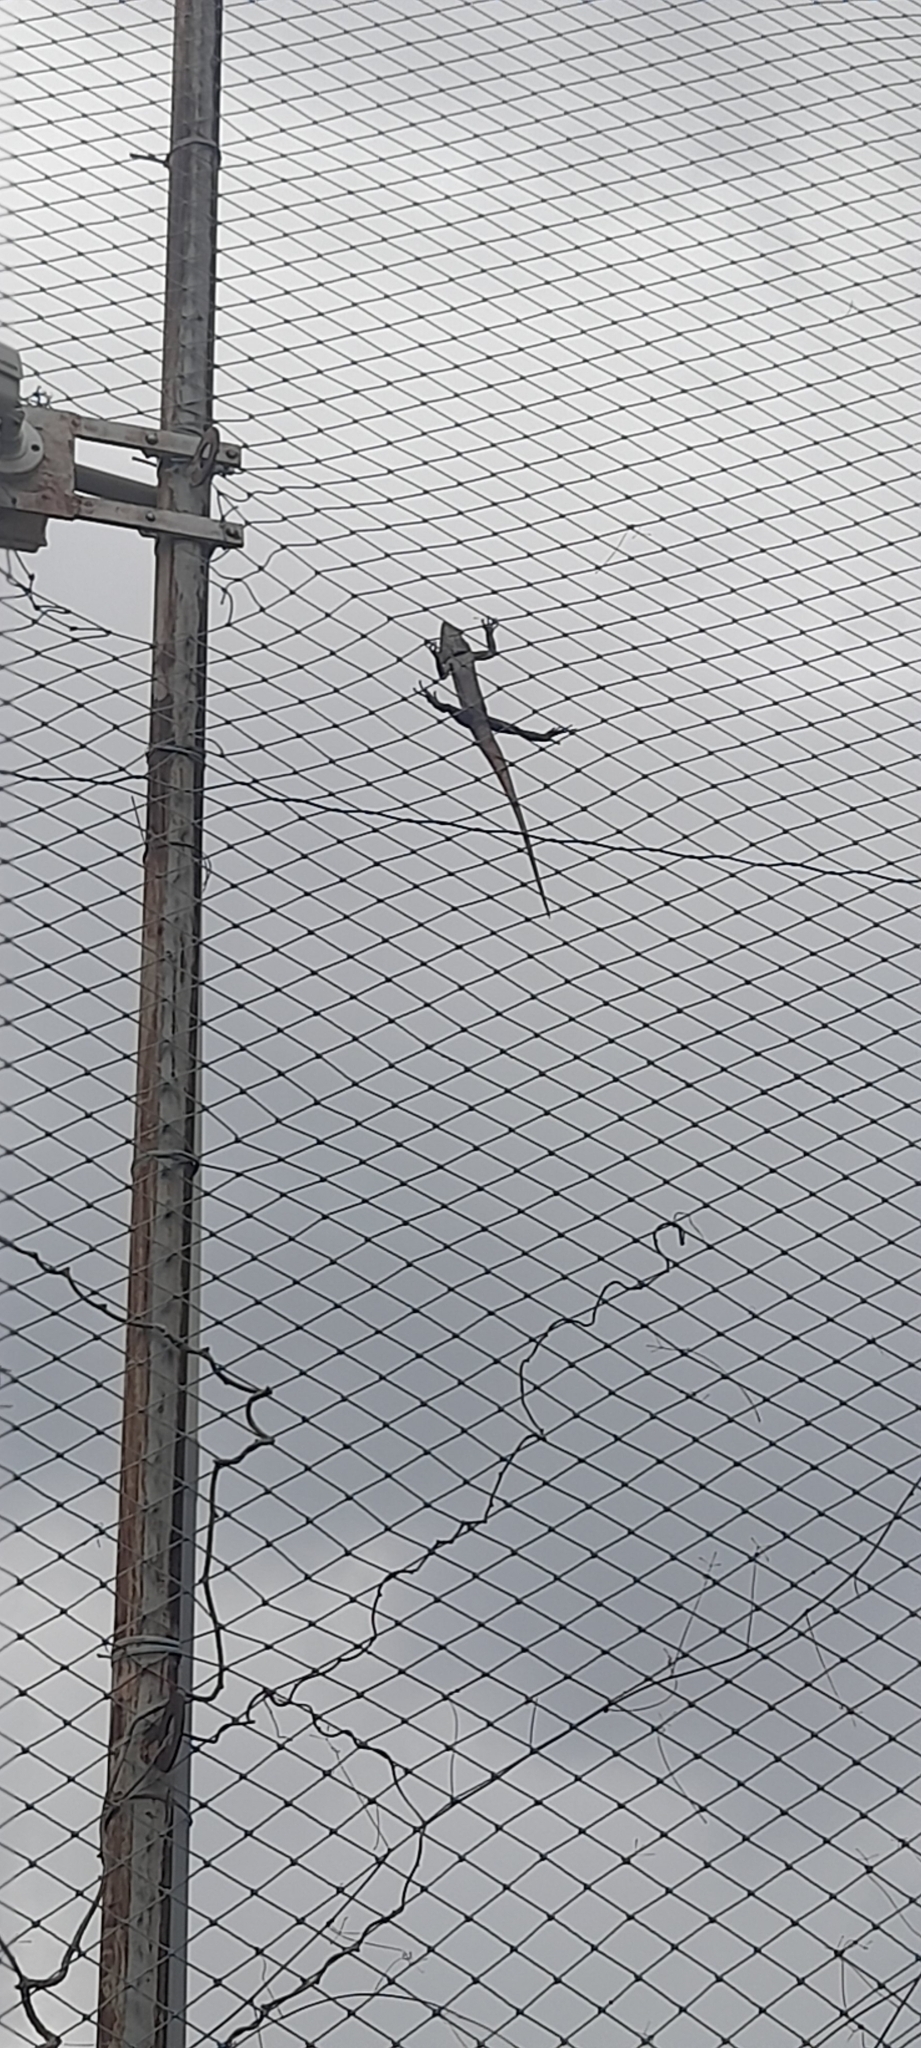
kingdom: Animalia
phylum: Chordata
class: Squamata
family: Agamidae
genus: Calotes
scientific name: Calotes versicolor
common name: Oriental garden lizard
